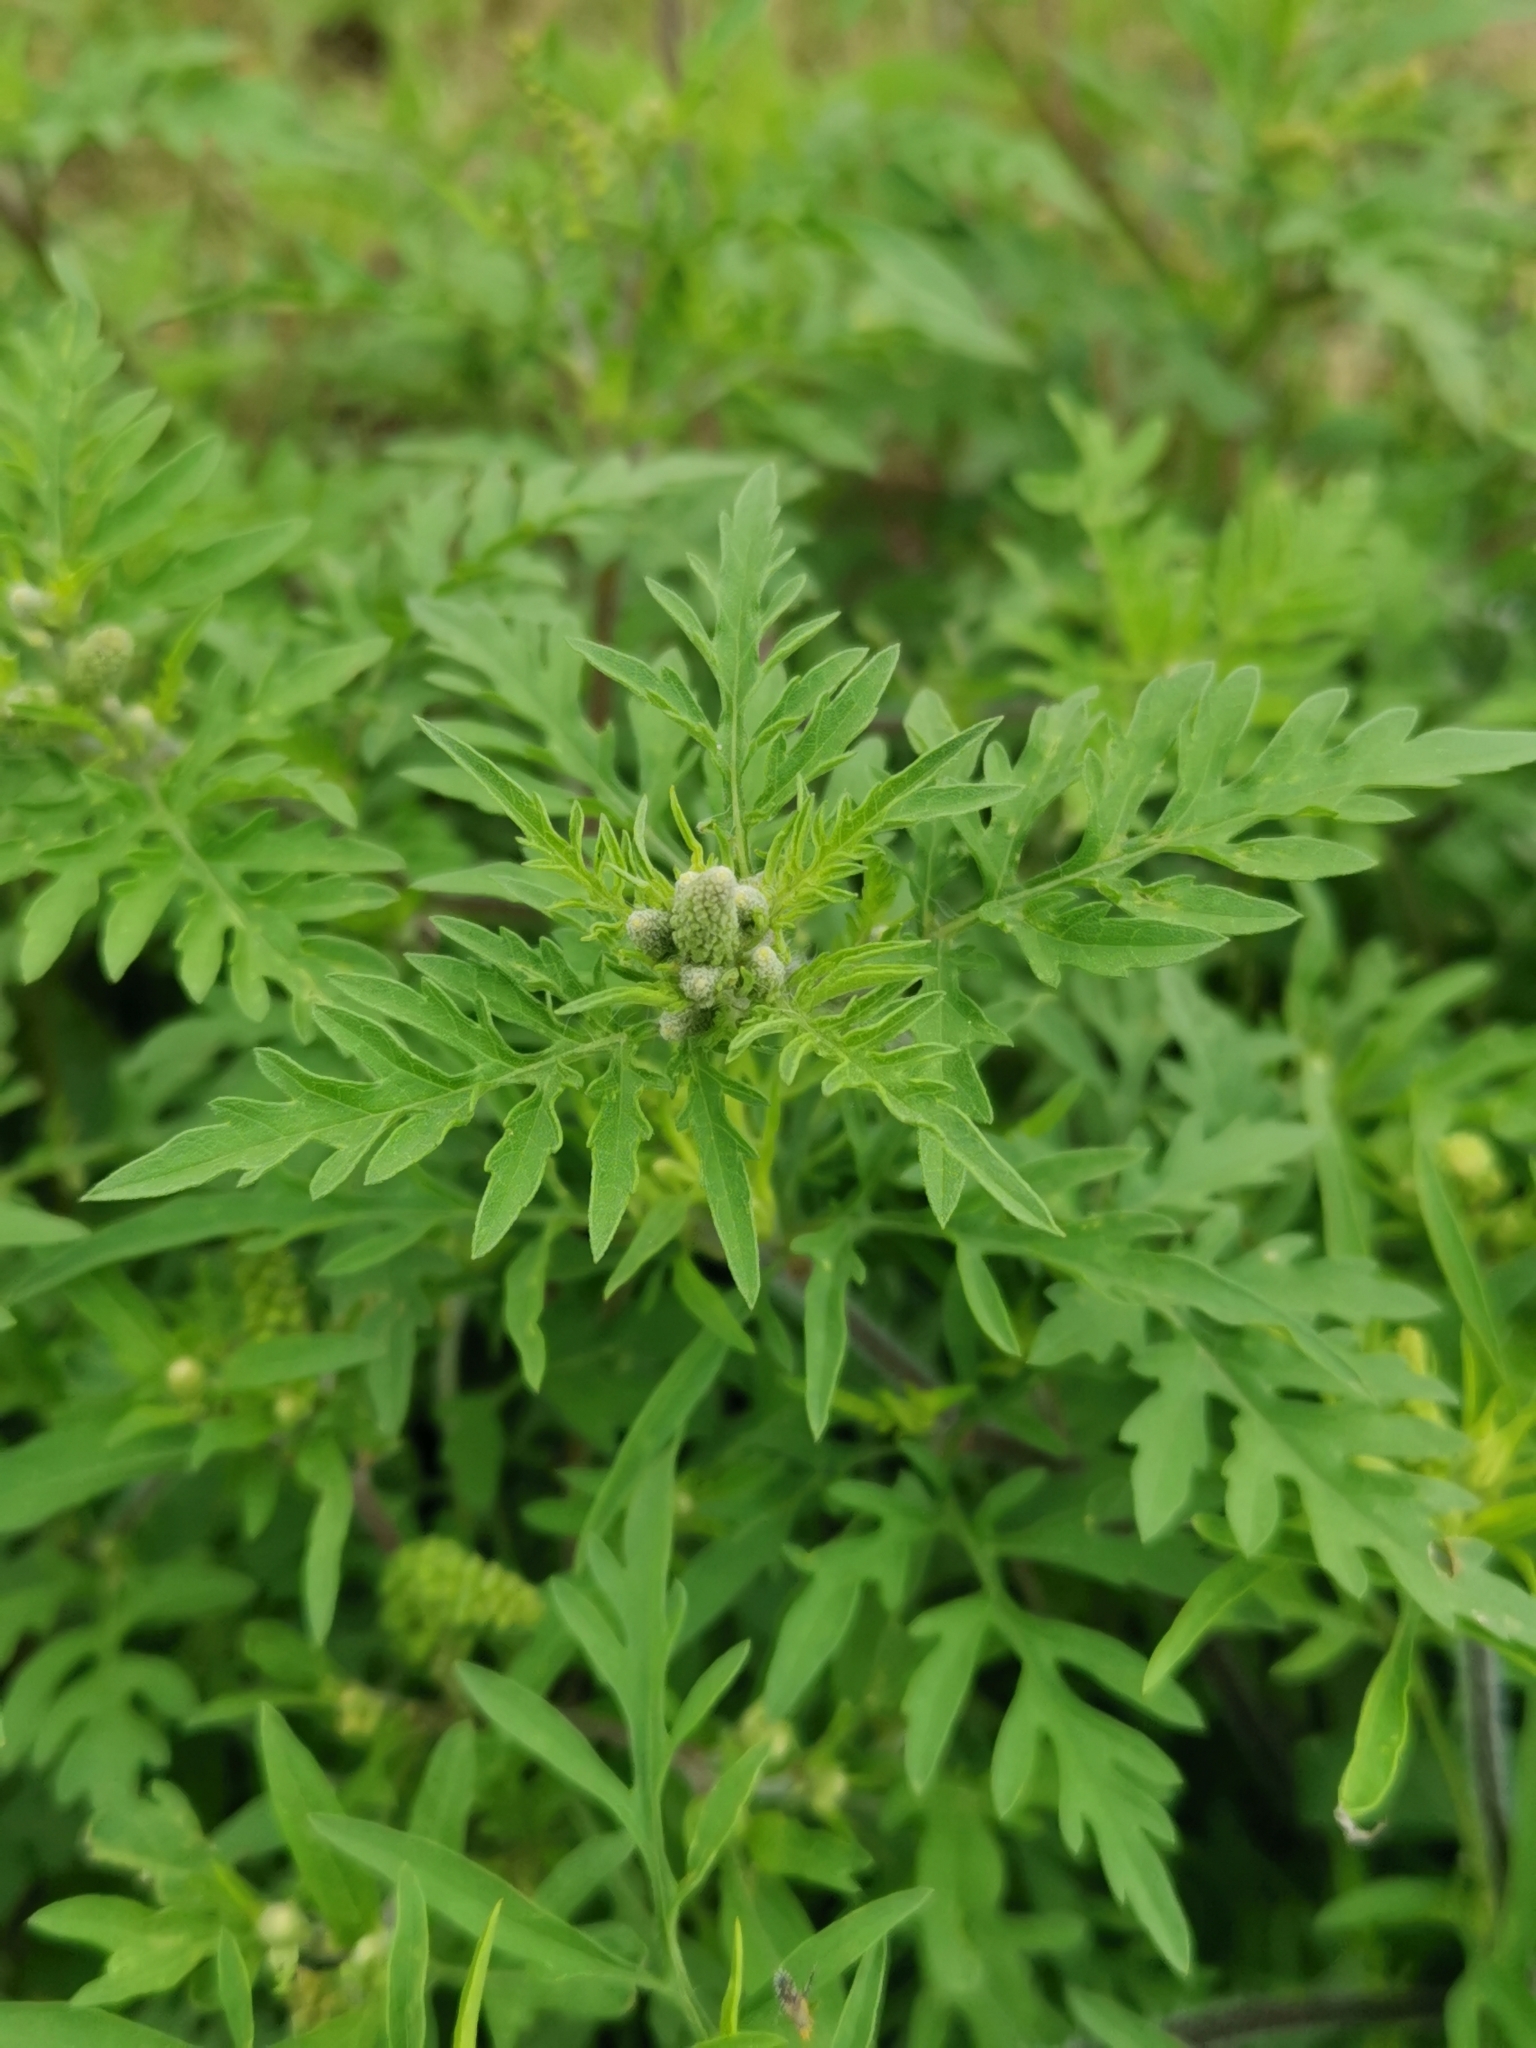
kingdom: Plantae
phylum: Tracheophyta
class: Magnoliopsida
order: Asterales
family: Asteraceae
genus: Ambrosia
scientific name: Ambrosia artemisiifolia
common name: Annual ragweed
